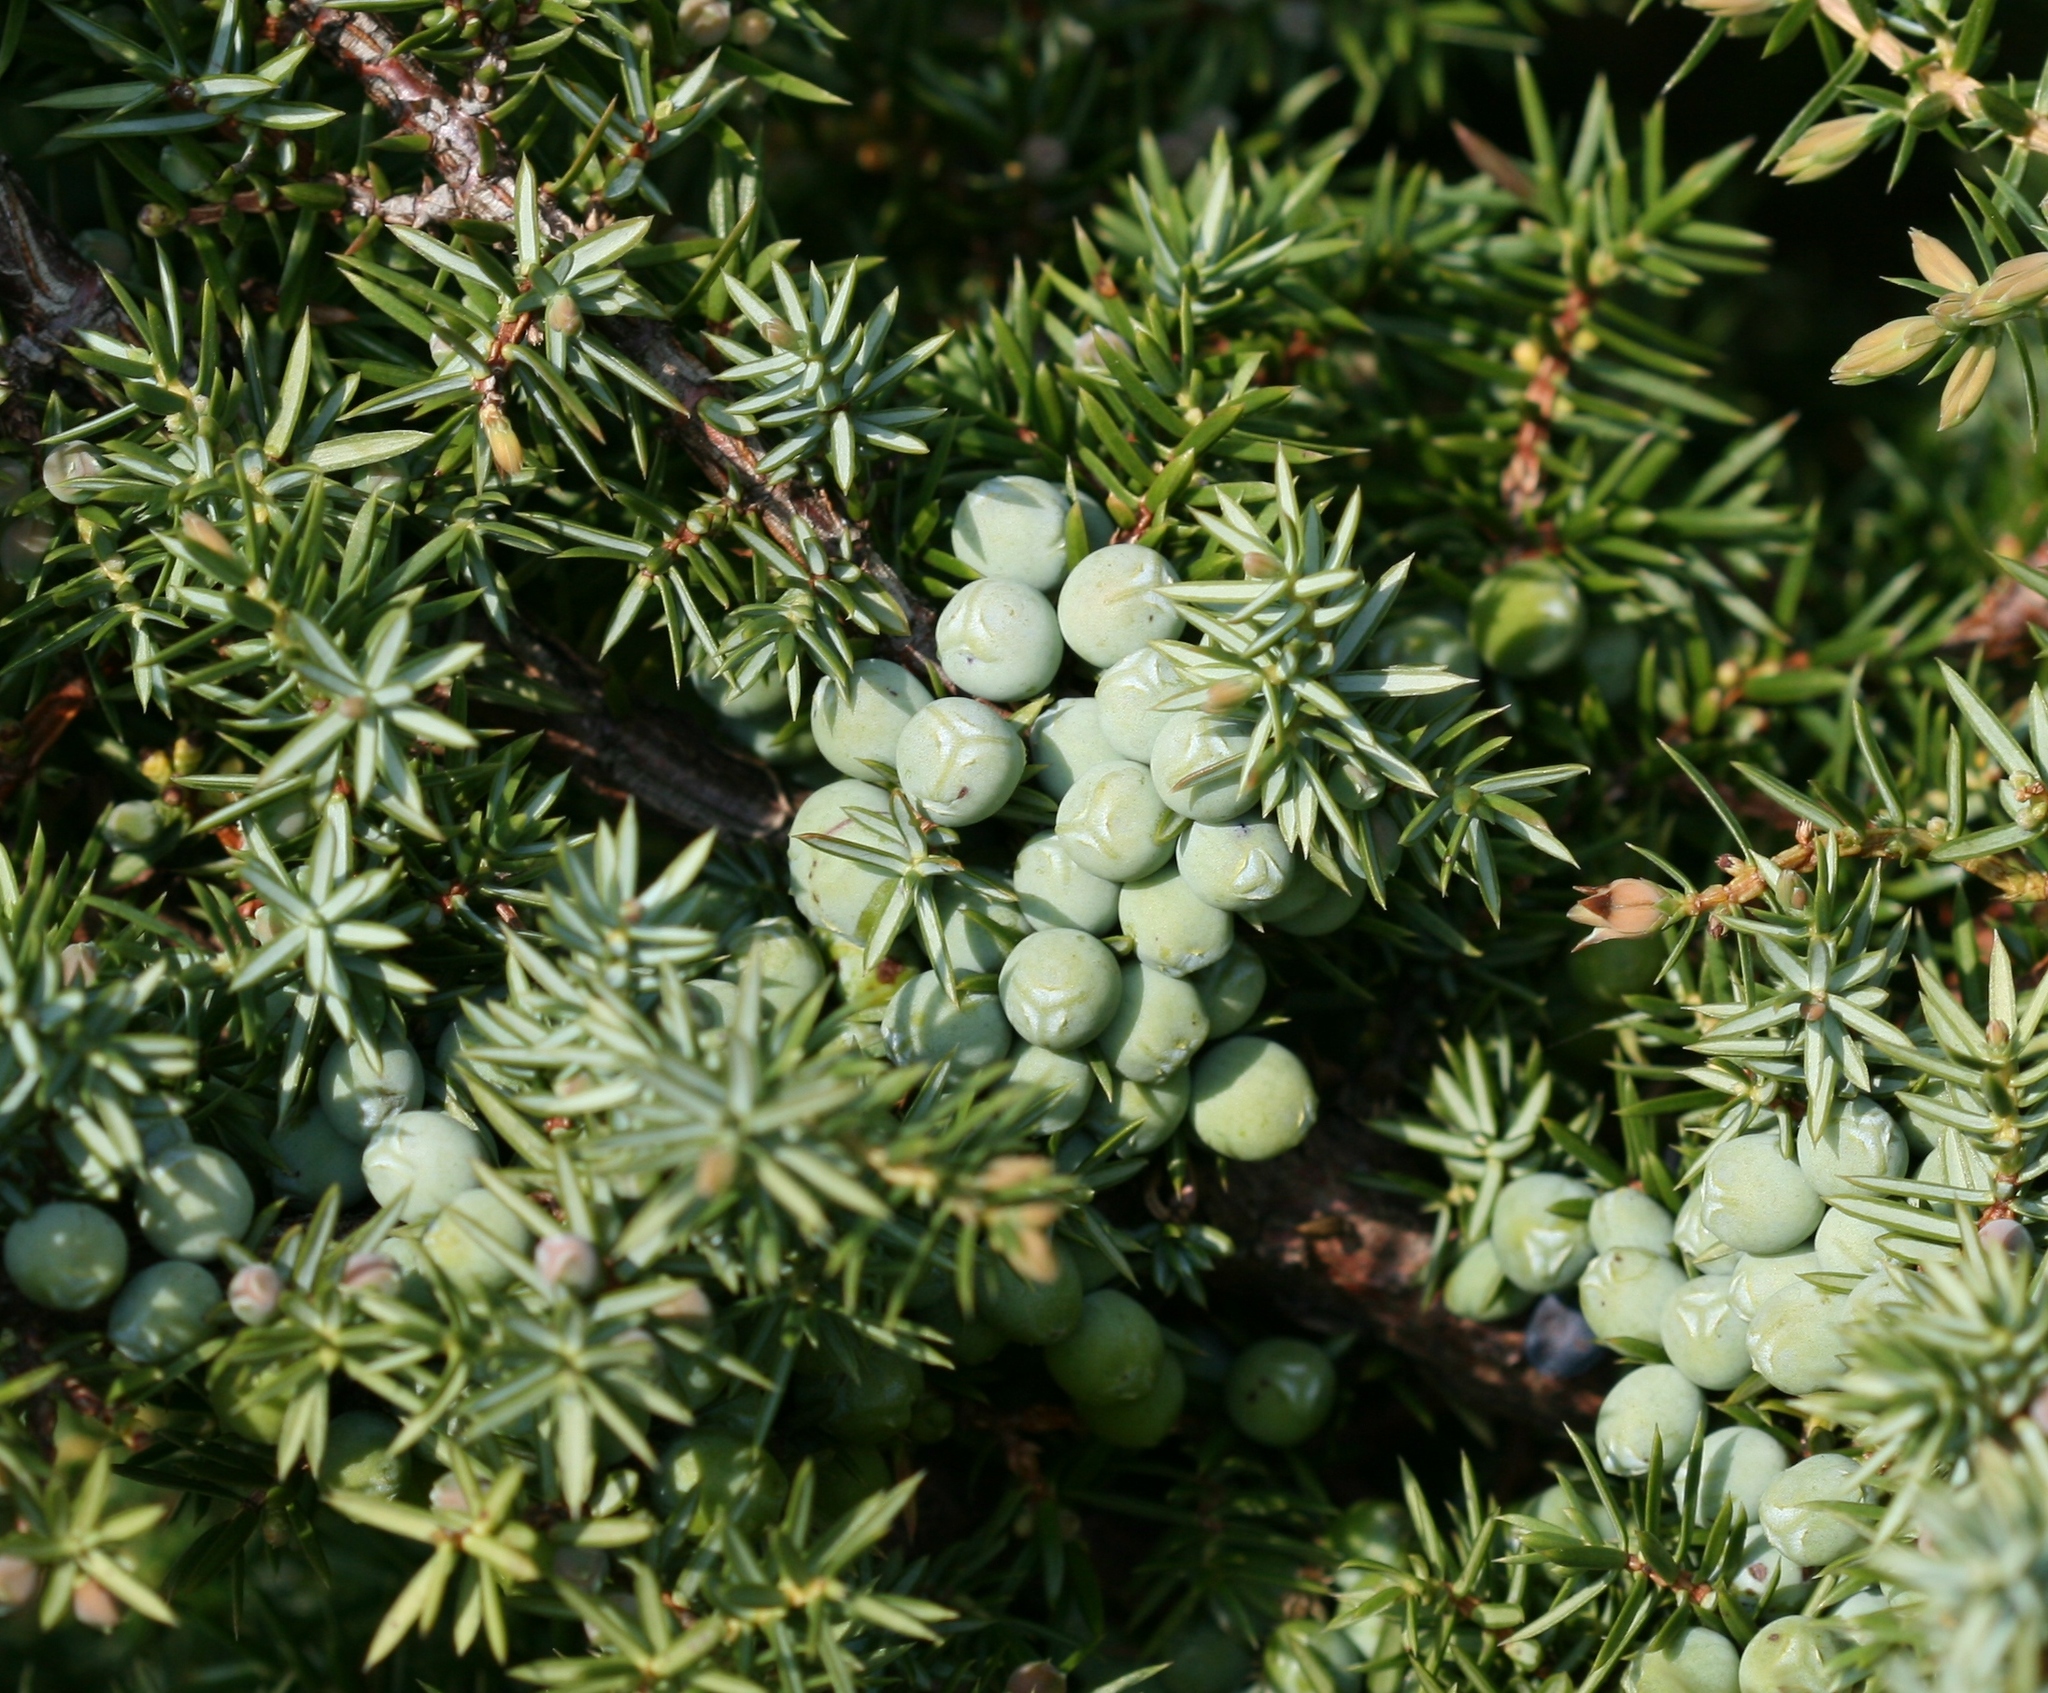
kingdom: Plantae
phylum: Tracheophyta
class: Pinopsida
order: Pinales
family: Cupressaceae
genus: Juniperus
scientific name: Juniperus communis
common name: Common juniper
